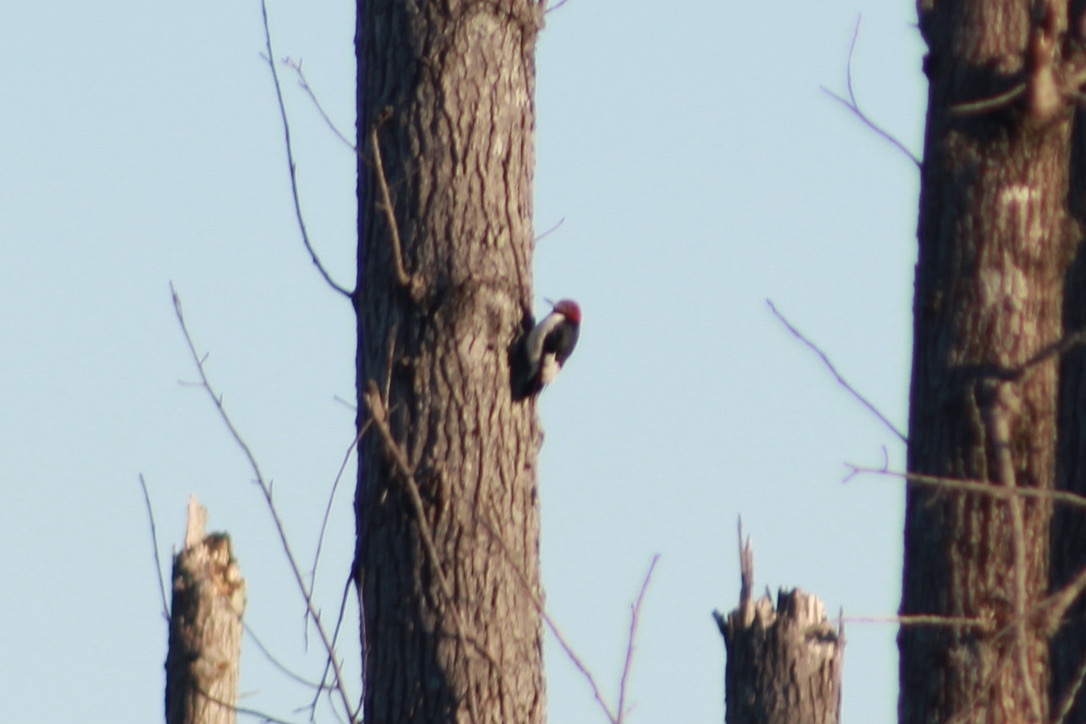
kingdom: Animalia
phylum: Chordata
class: Aves
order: Piciformes
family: Picidae
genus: Melanerpes
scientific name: Melanerpes erythrocephalus
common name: Red-headed woodpecker
